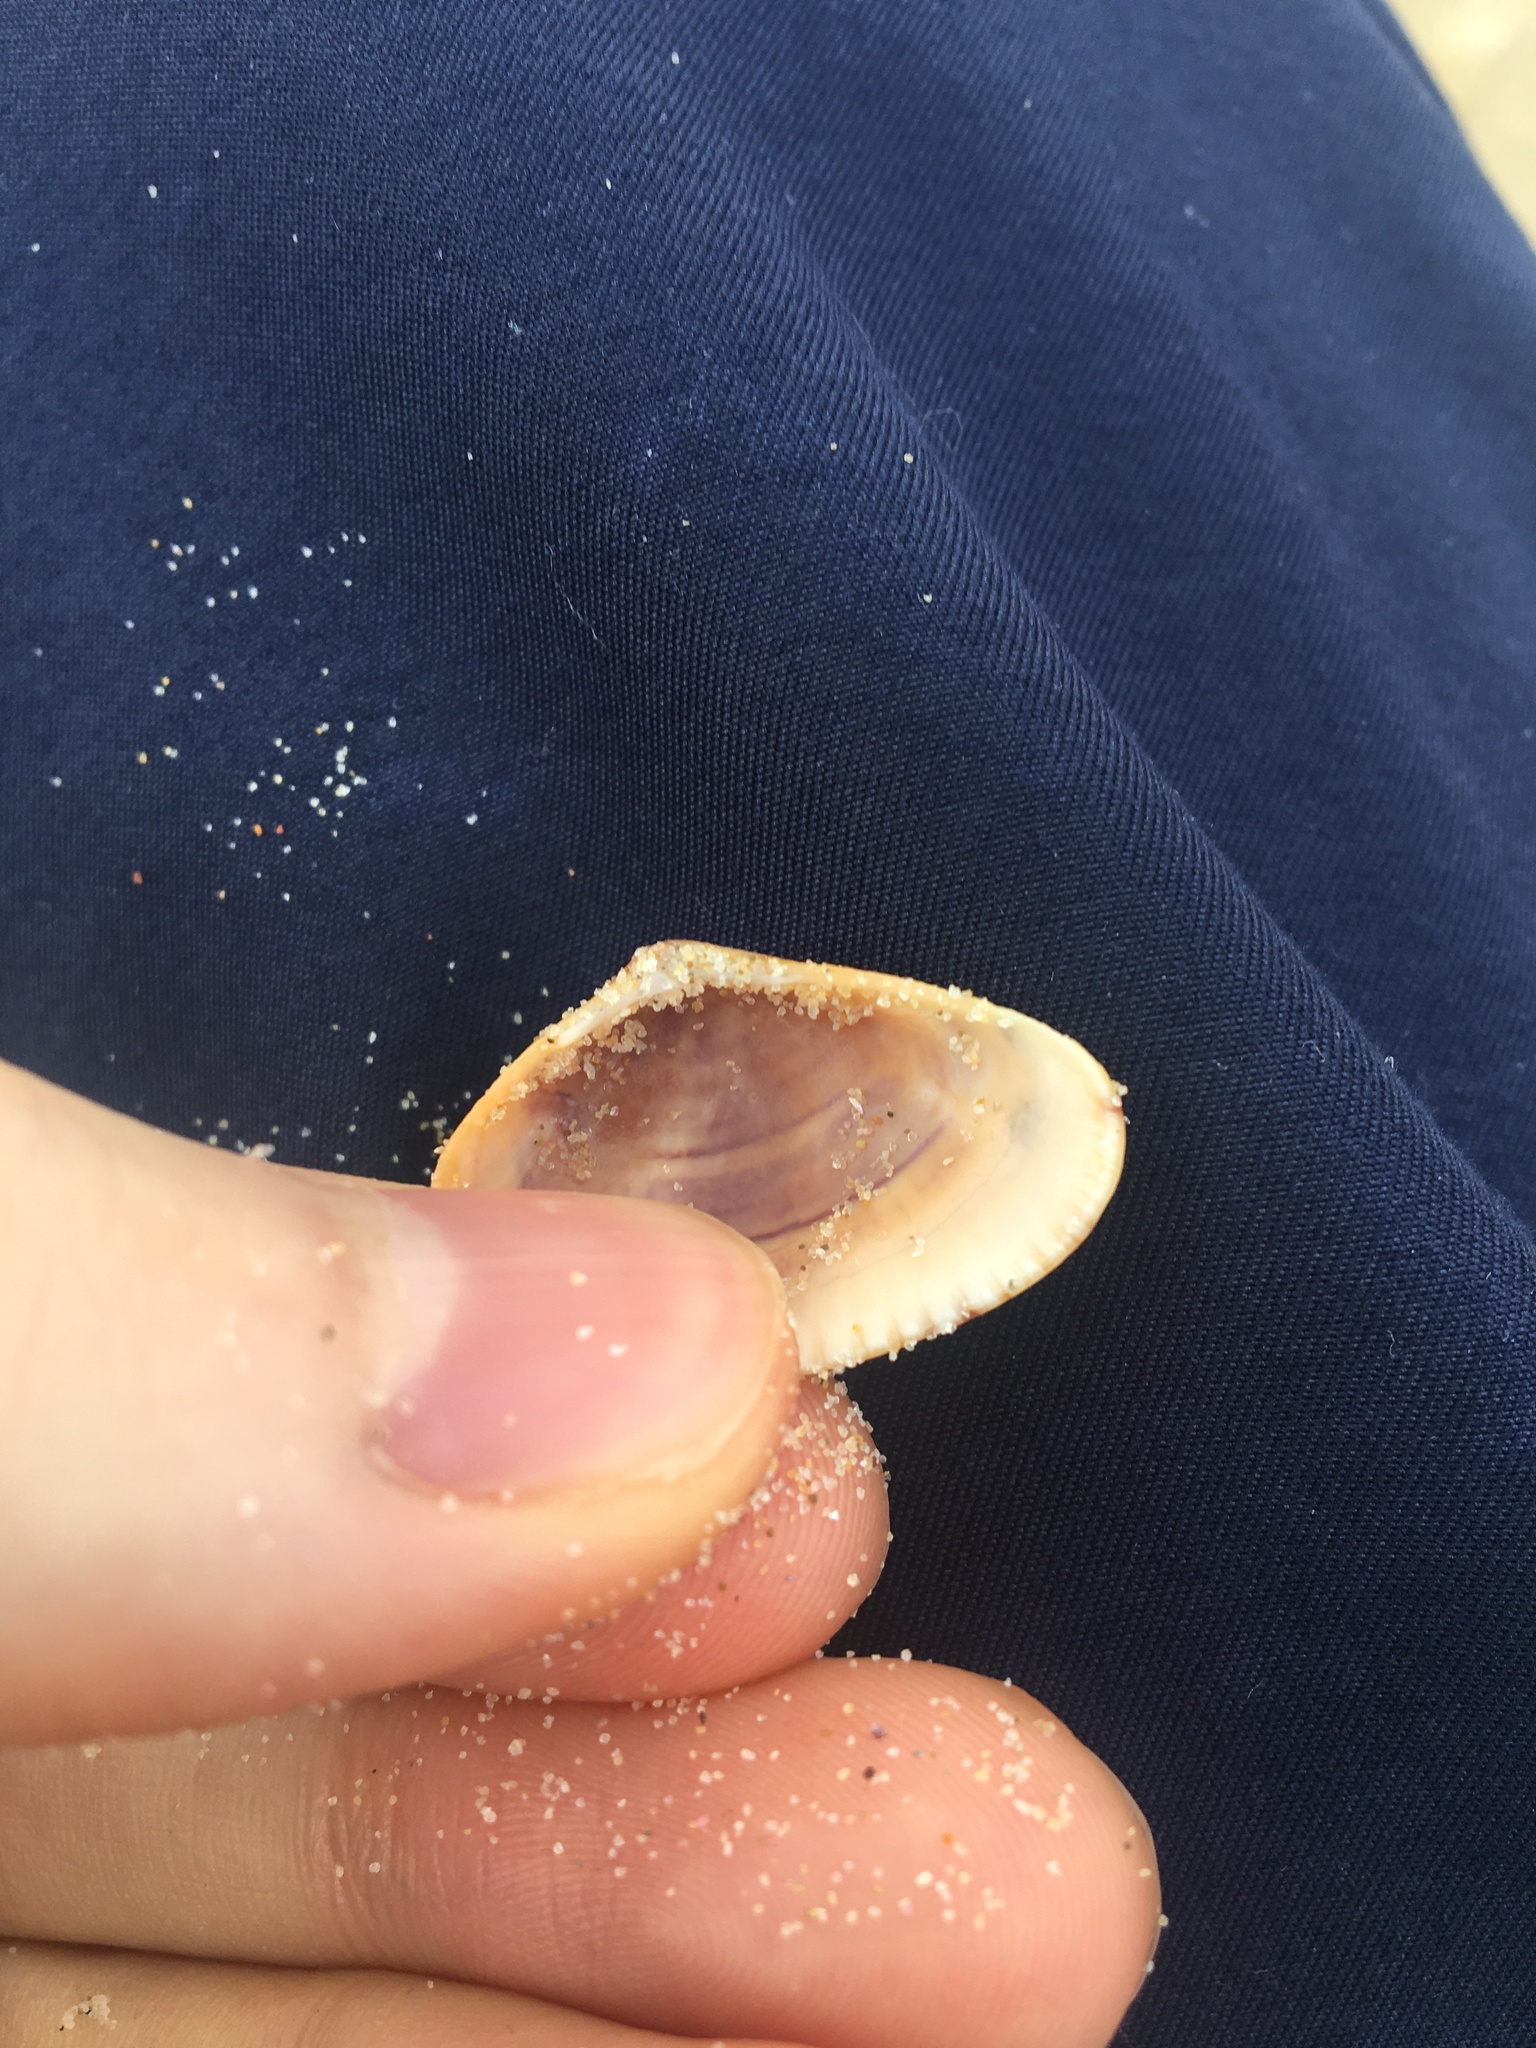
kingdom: Animalia
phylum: Mollusca
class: Bivalvia
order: Venerida
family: Hemidonacidae
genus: Hemidonax
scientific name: Hemidonax dactylus
